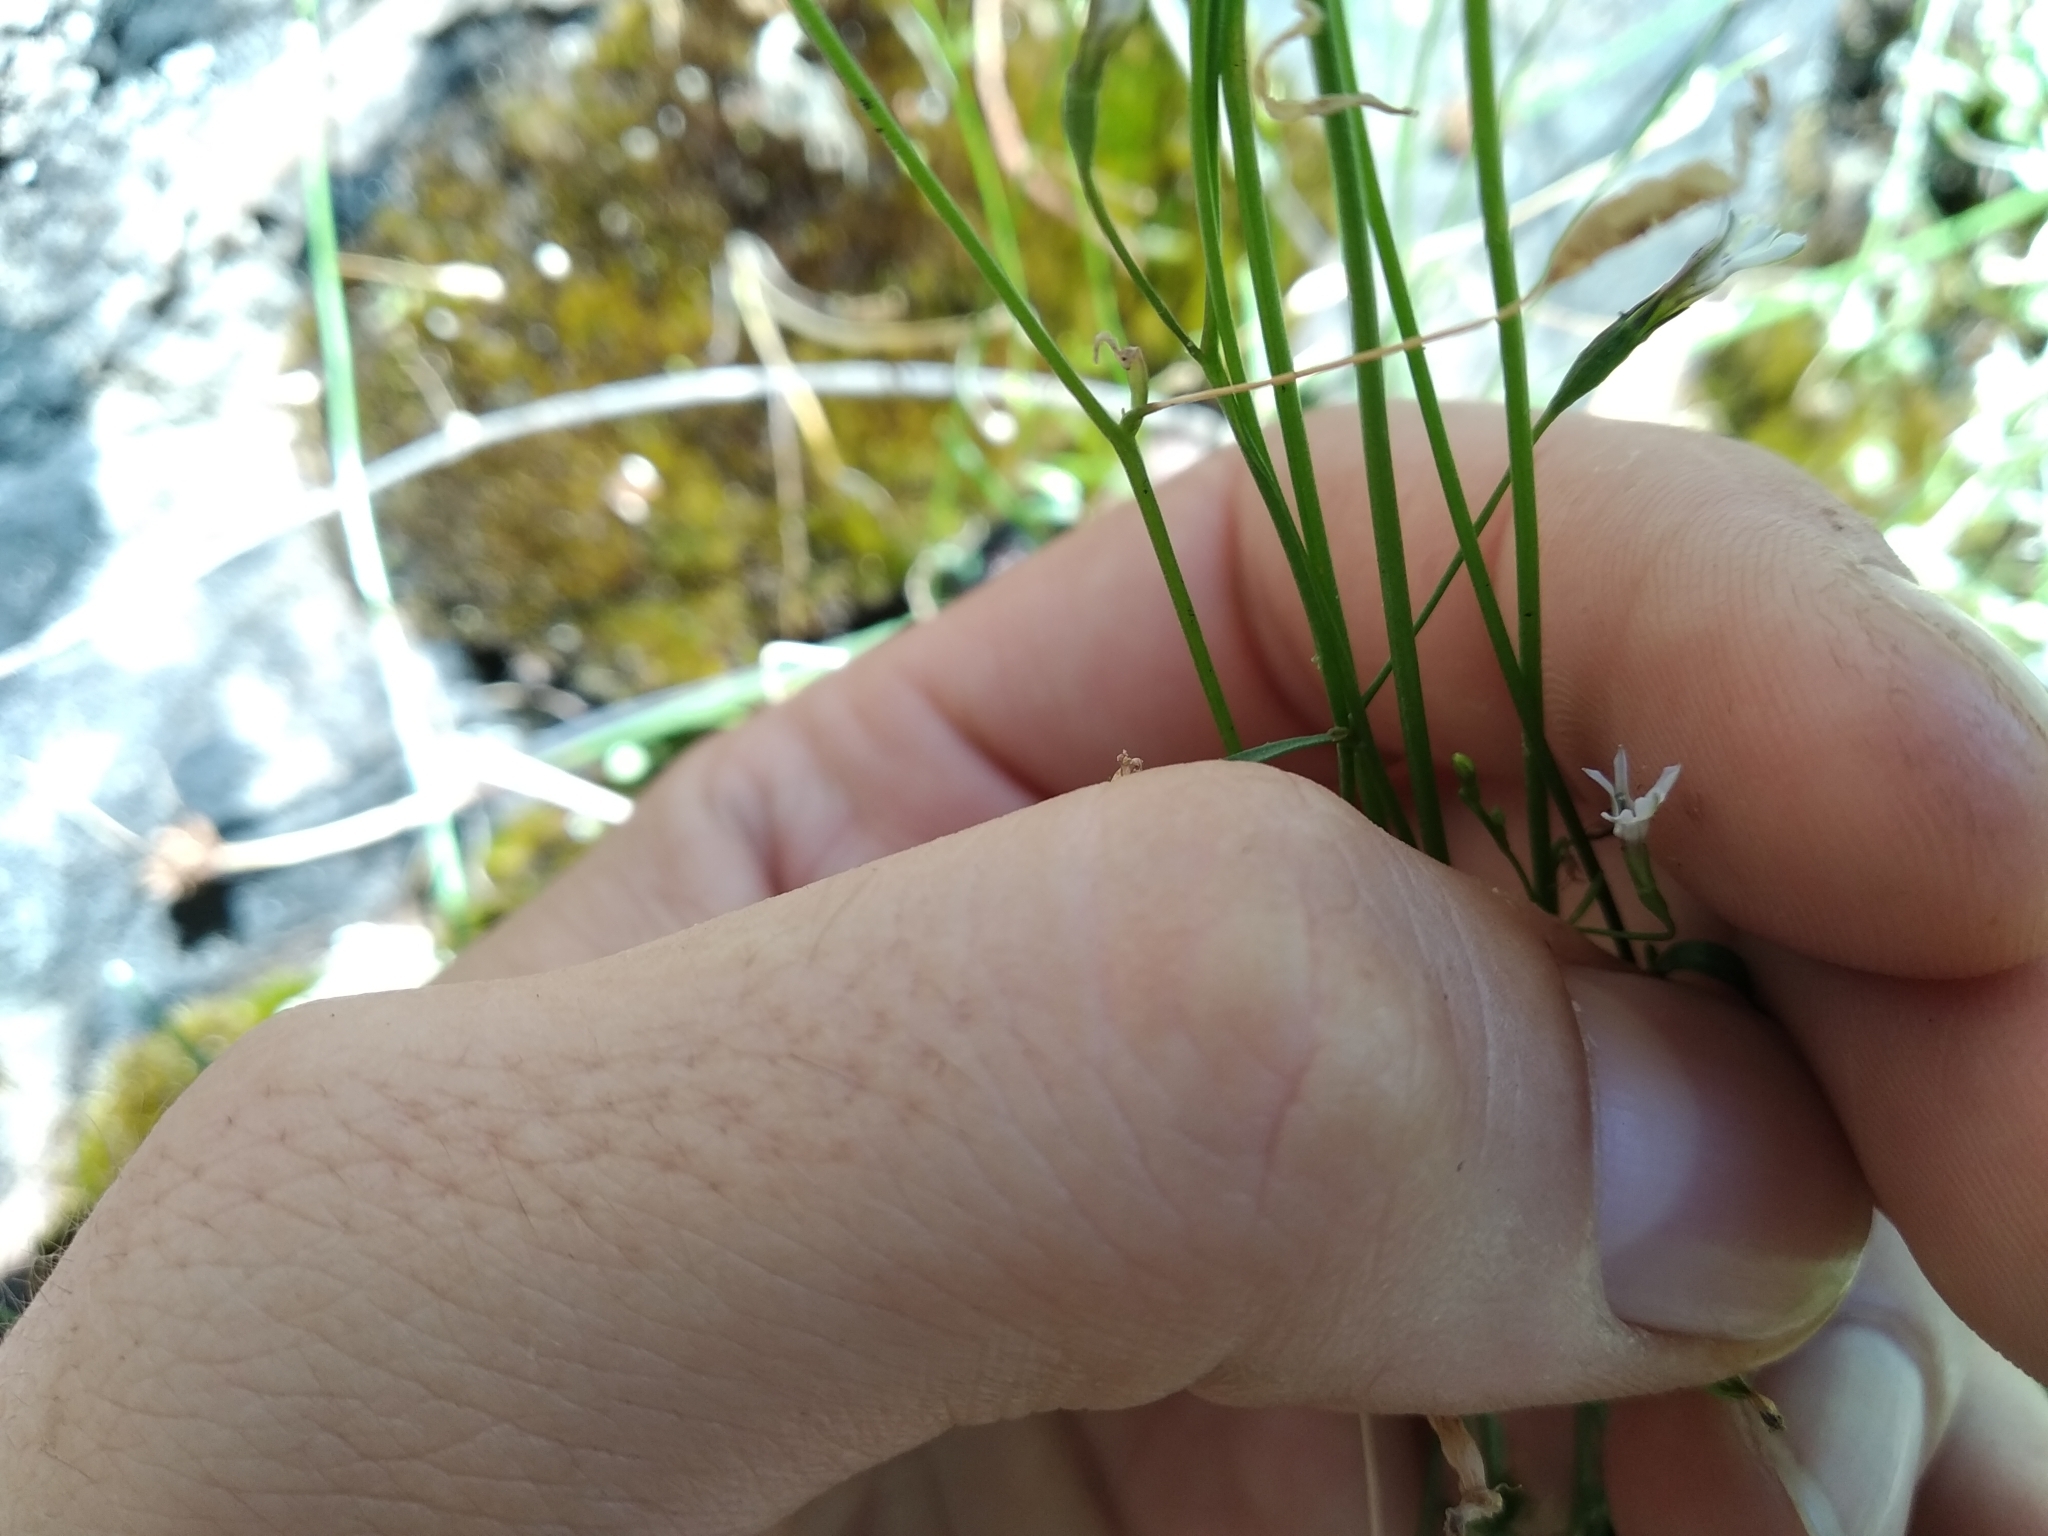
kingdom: Plantae
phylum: Tracheophyta
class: Magnoliopsida
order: Asterales
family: Campanulaceae
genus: Wimmerella
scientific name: Wimmerella arabidea
